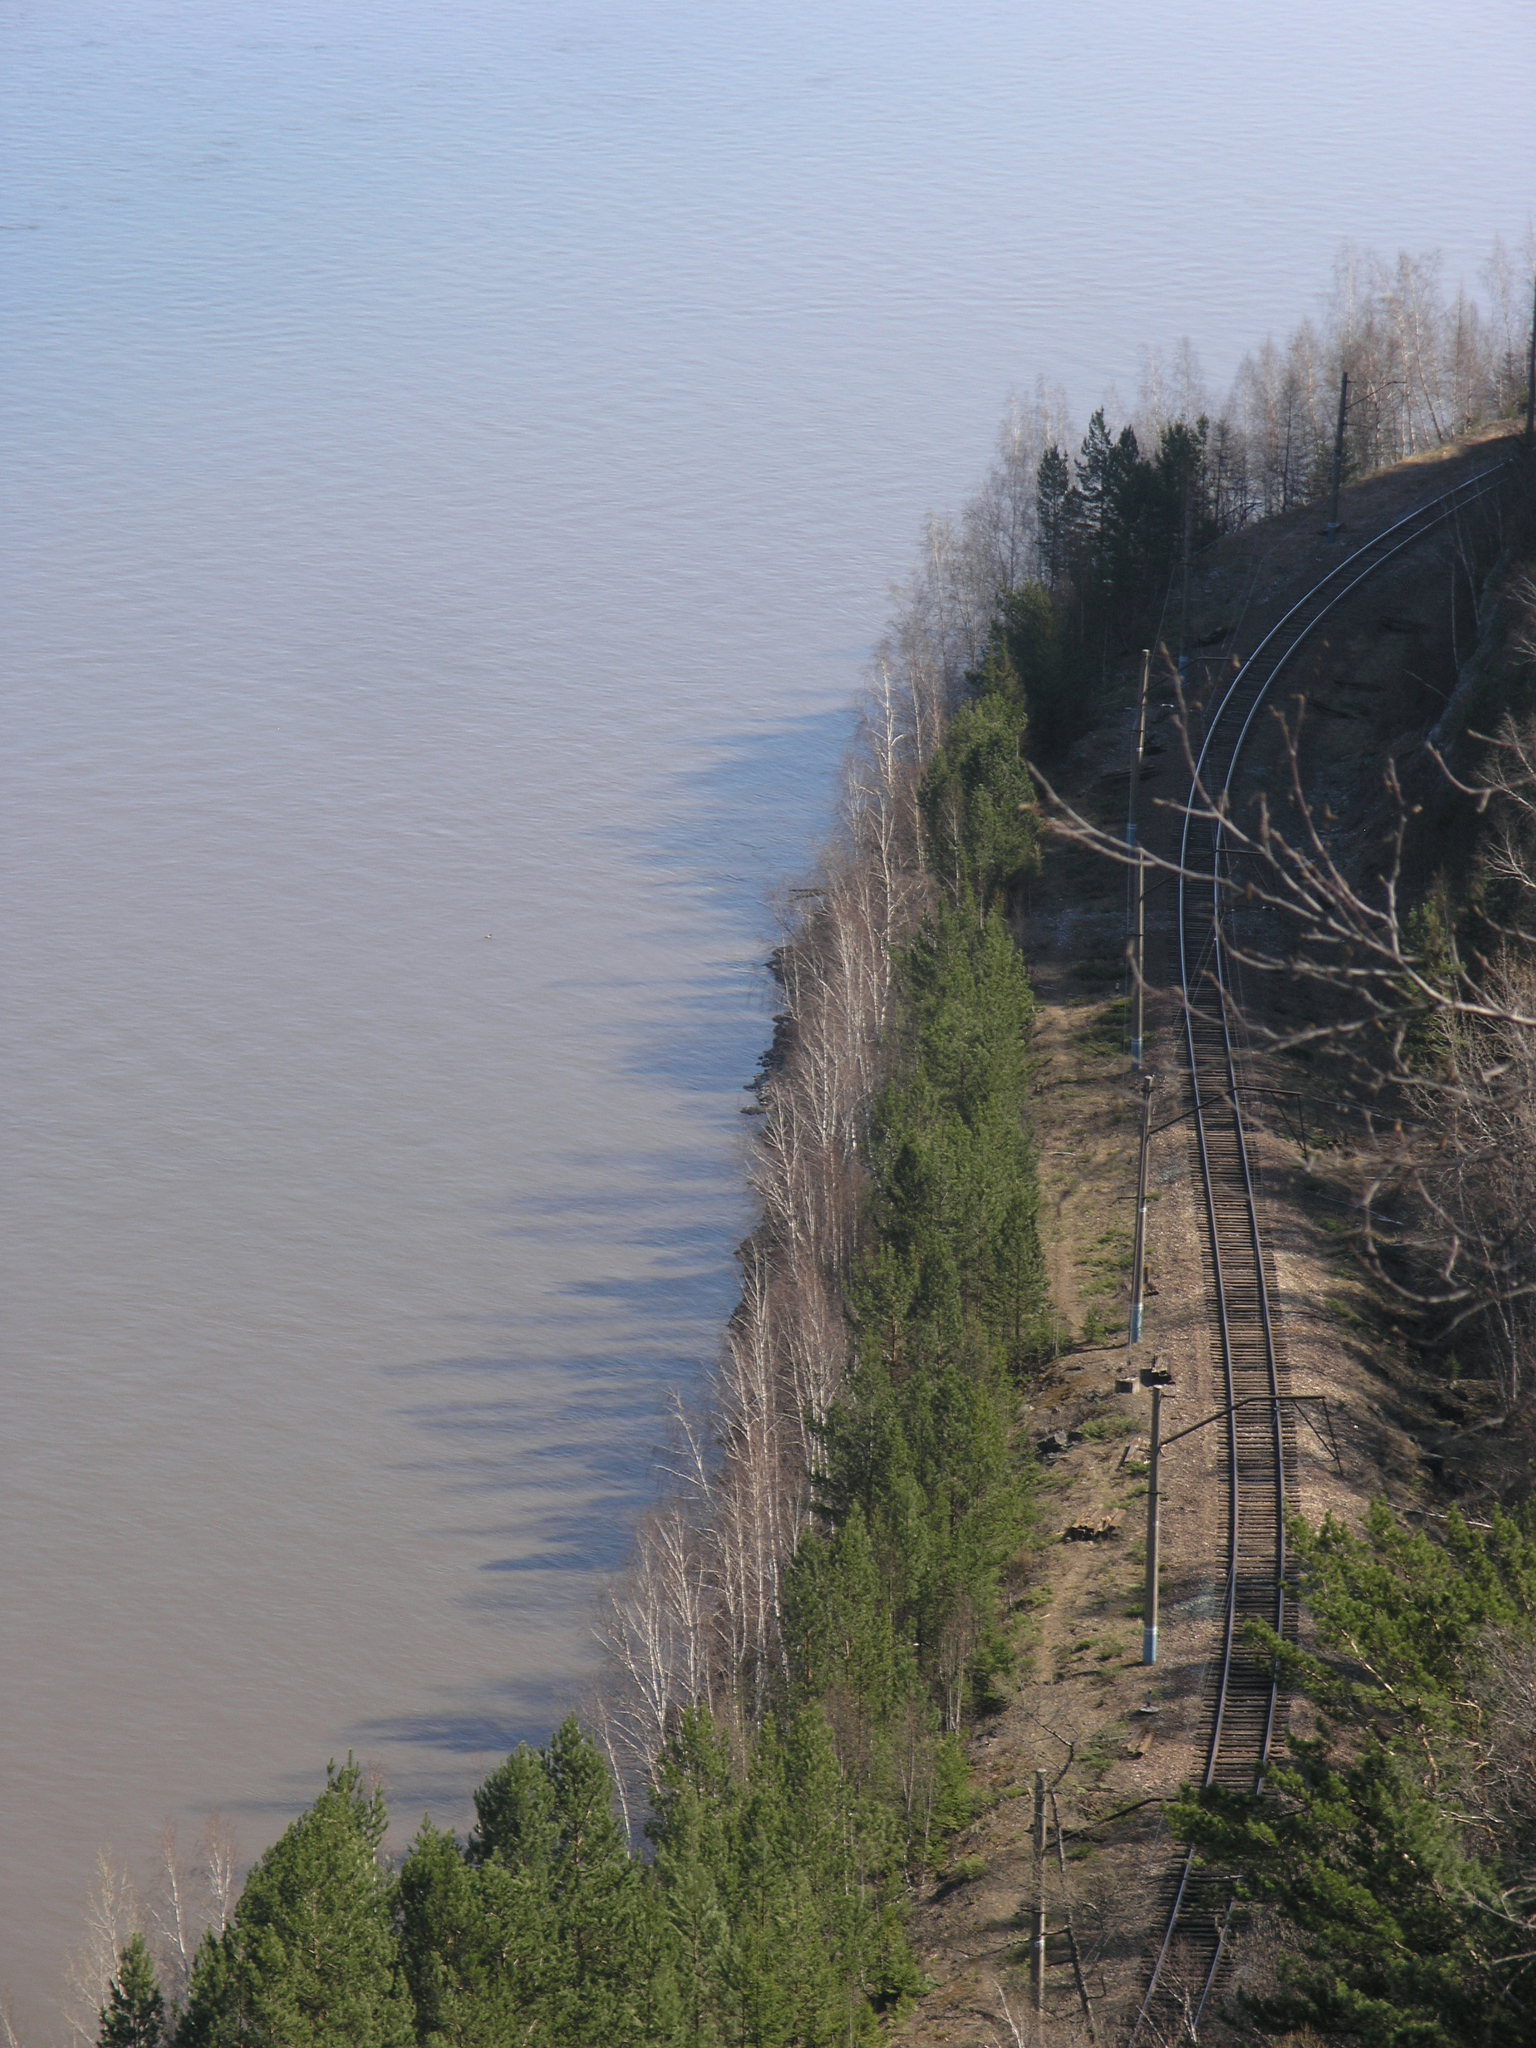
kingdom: Plantae
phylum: Tracheophyta
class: Pinopsida
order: Pinales
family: Pinaceae
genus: Pinus
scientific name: Pinus sylvestris
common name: Scots pine
